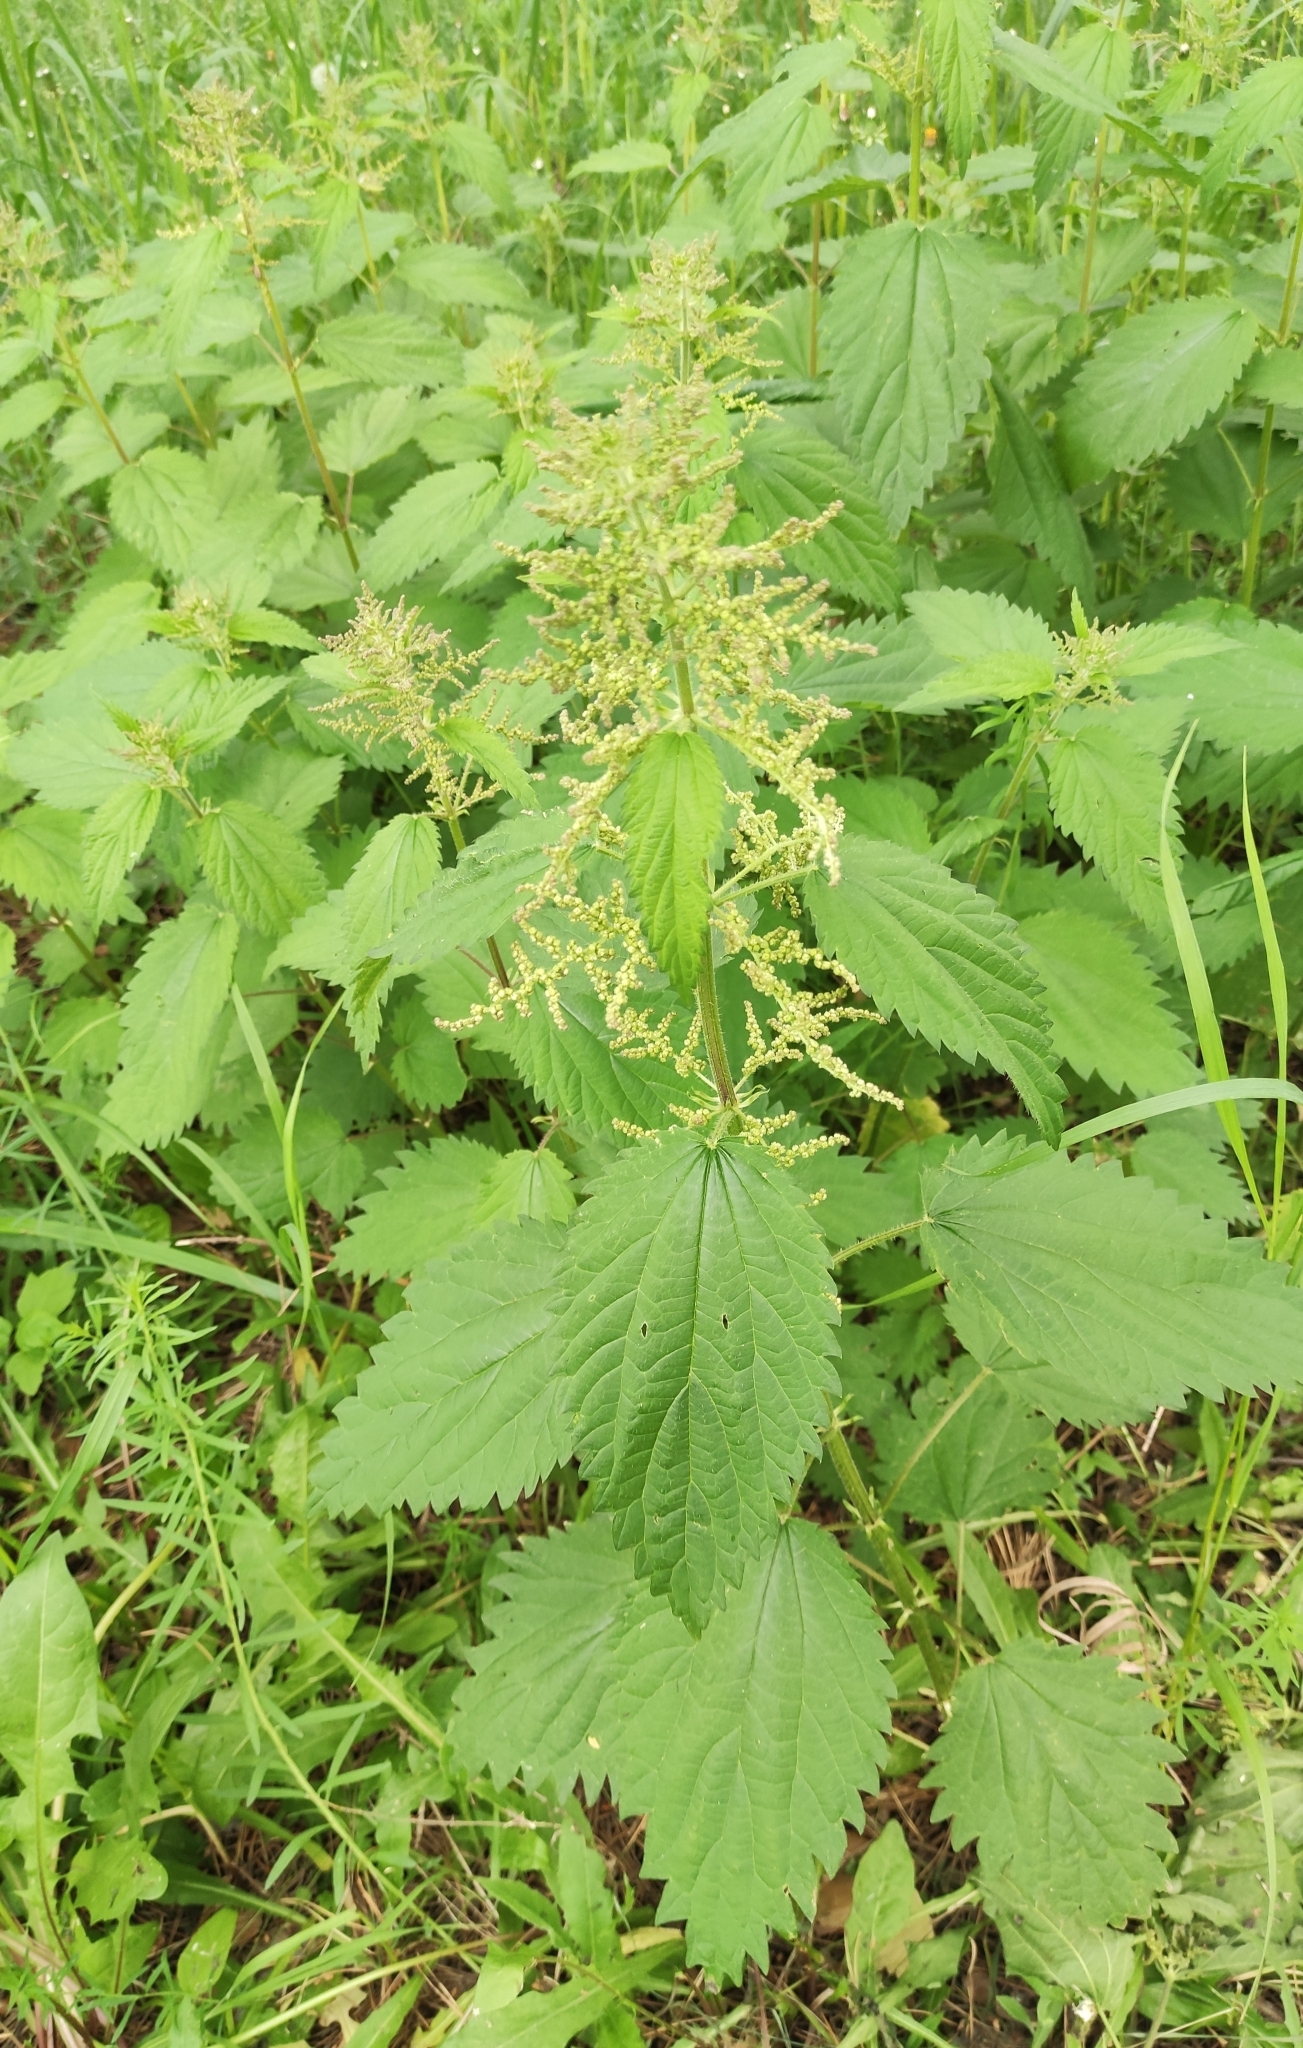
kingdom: Plantae
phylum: Tracheophyta
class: Magnoliopsida
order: Rosales
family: Urticaceae
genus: Urtica
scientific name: Urtica dioica
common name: Common nettle
